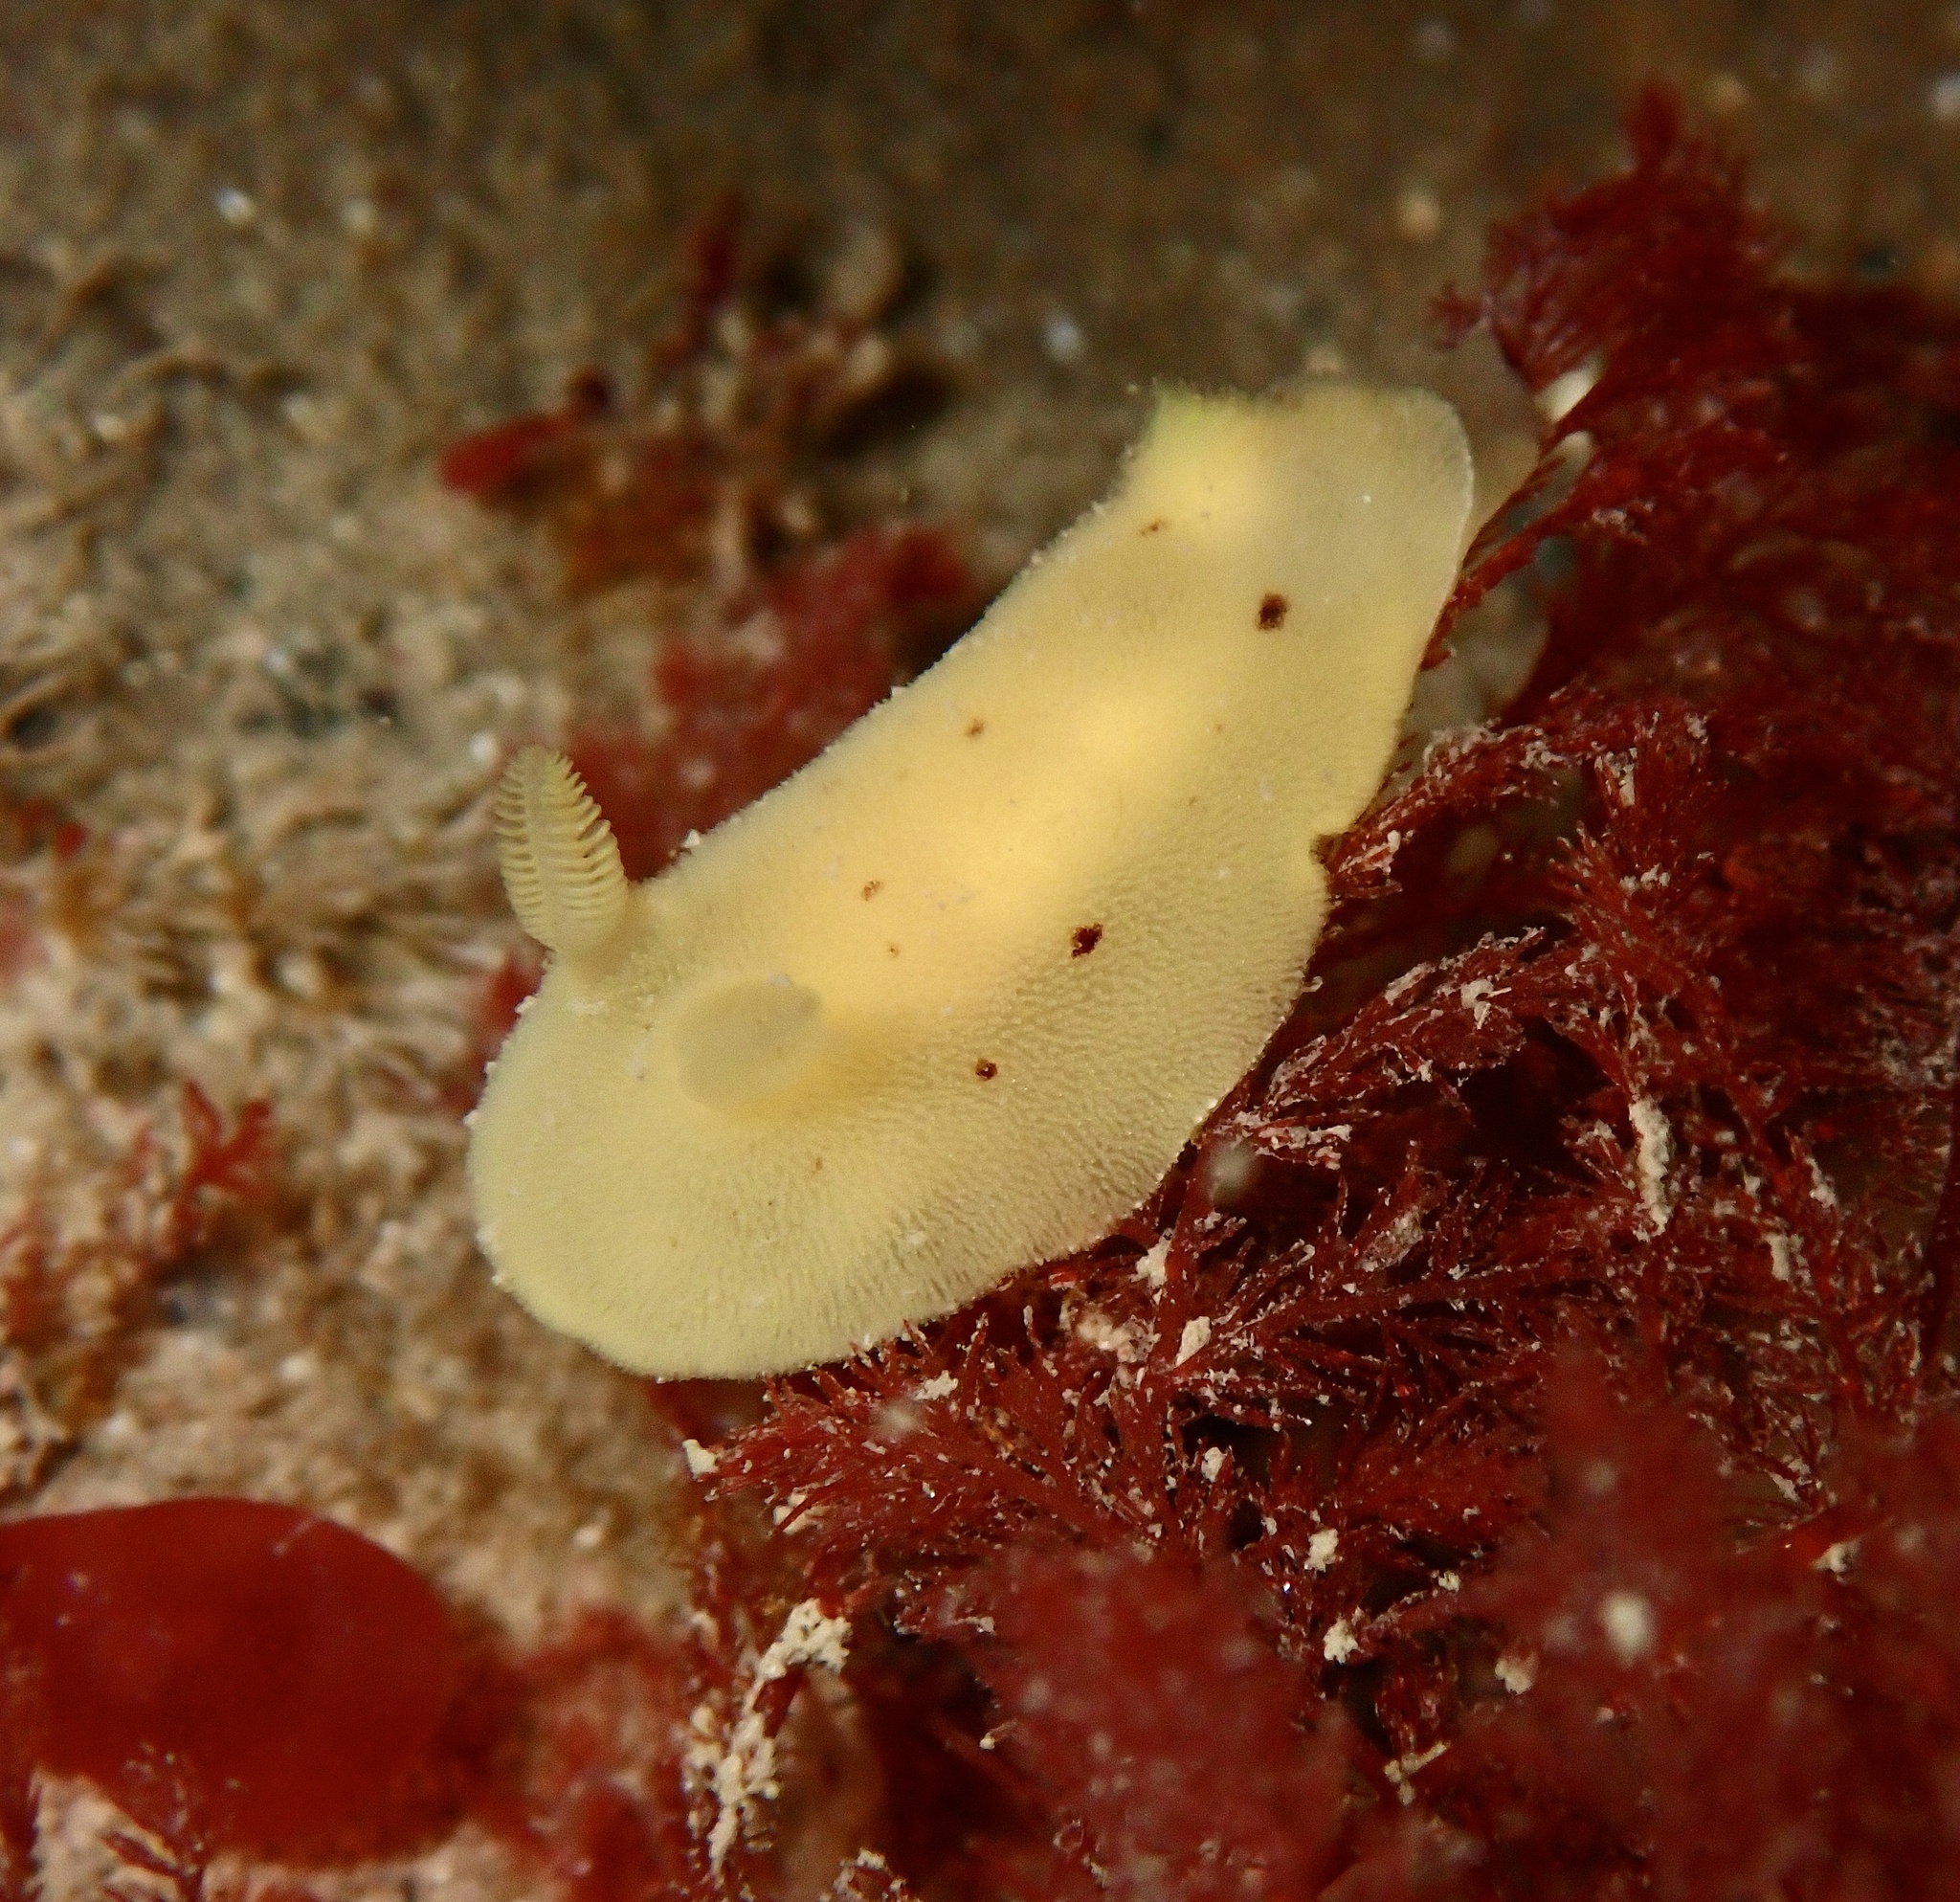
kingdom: Animalia
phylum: Mollusca
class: Gastropoda
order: Nudibranchia
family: Discodorididae
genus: Jorunna
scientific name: Jorunna artsdatabankia
